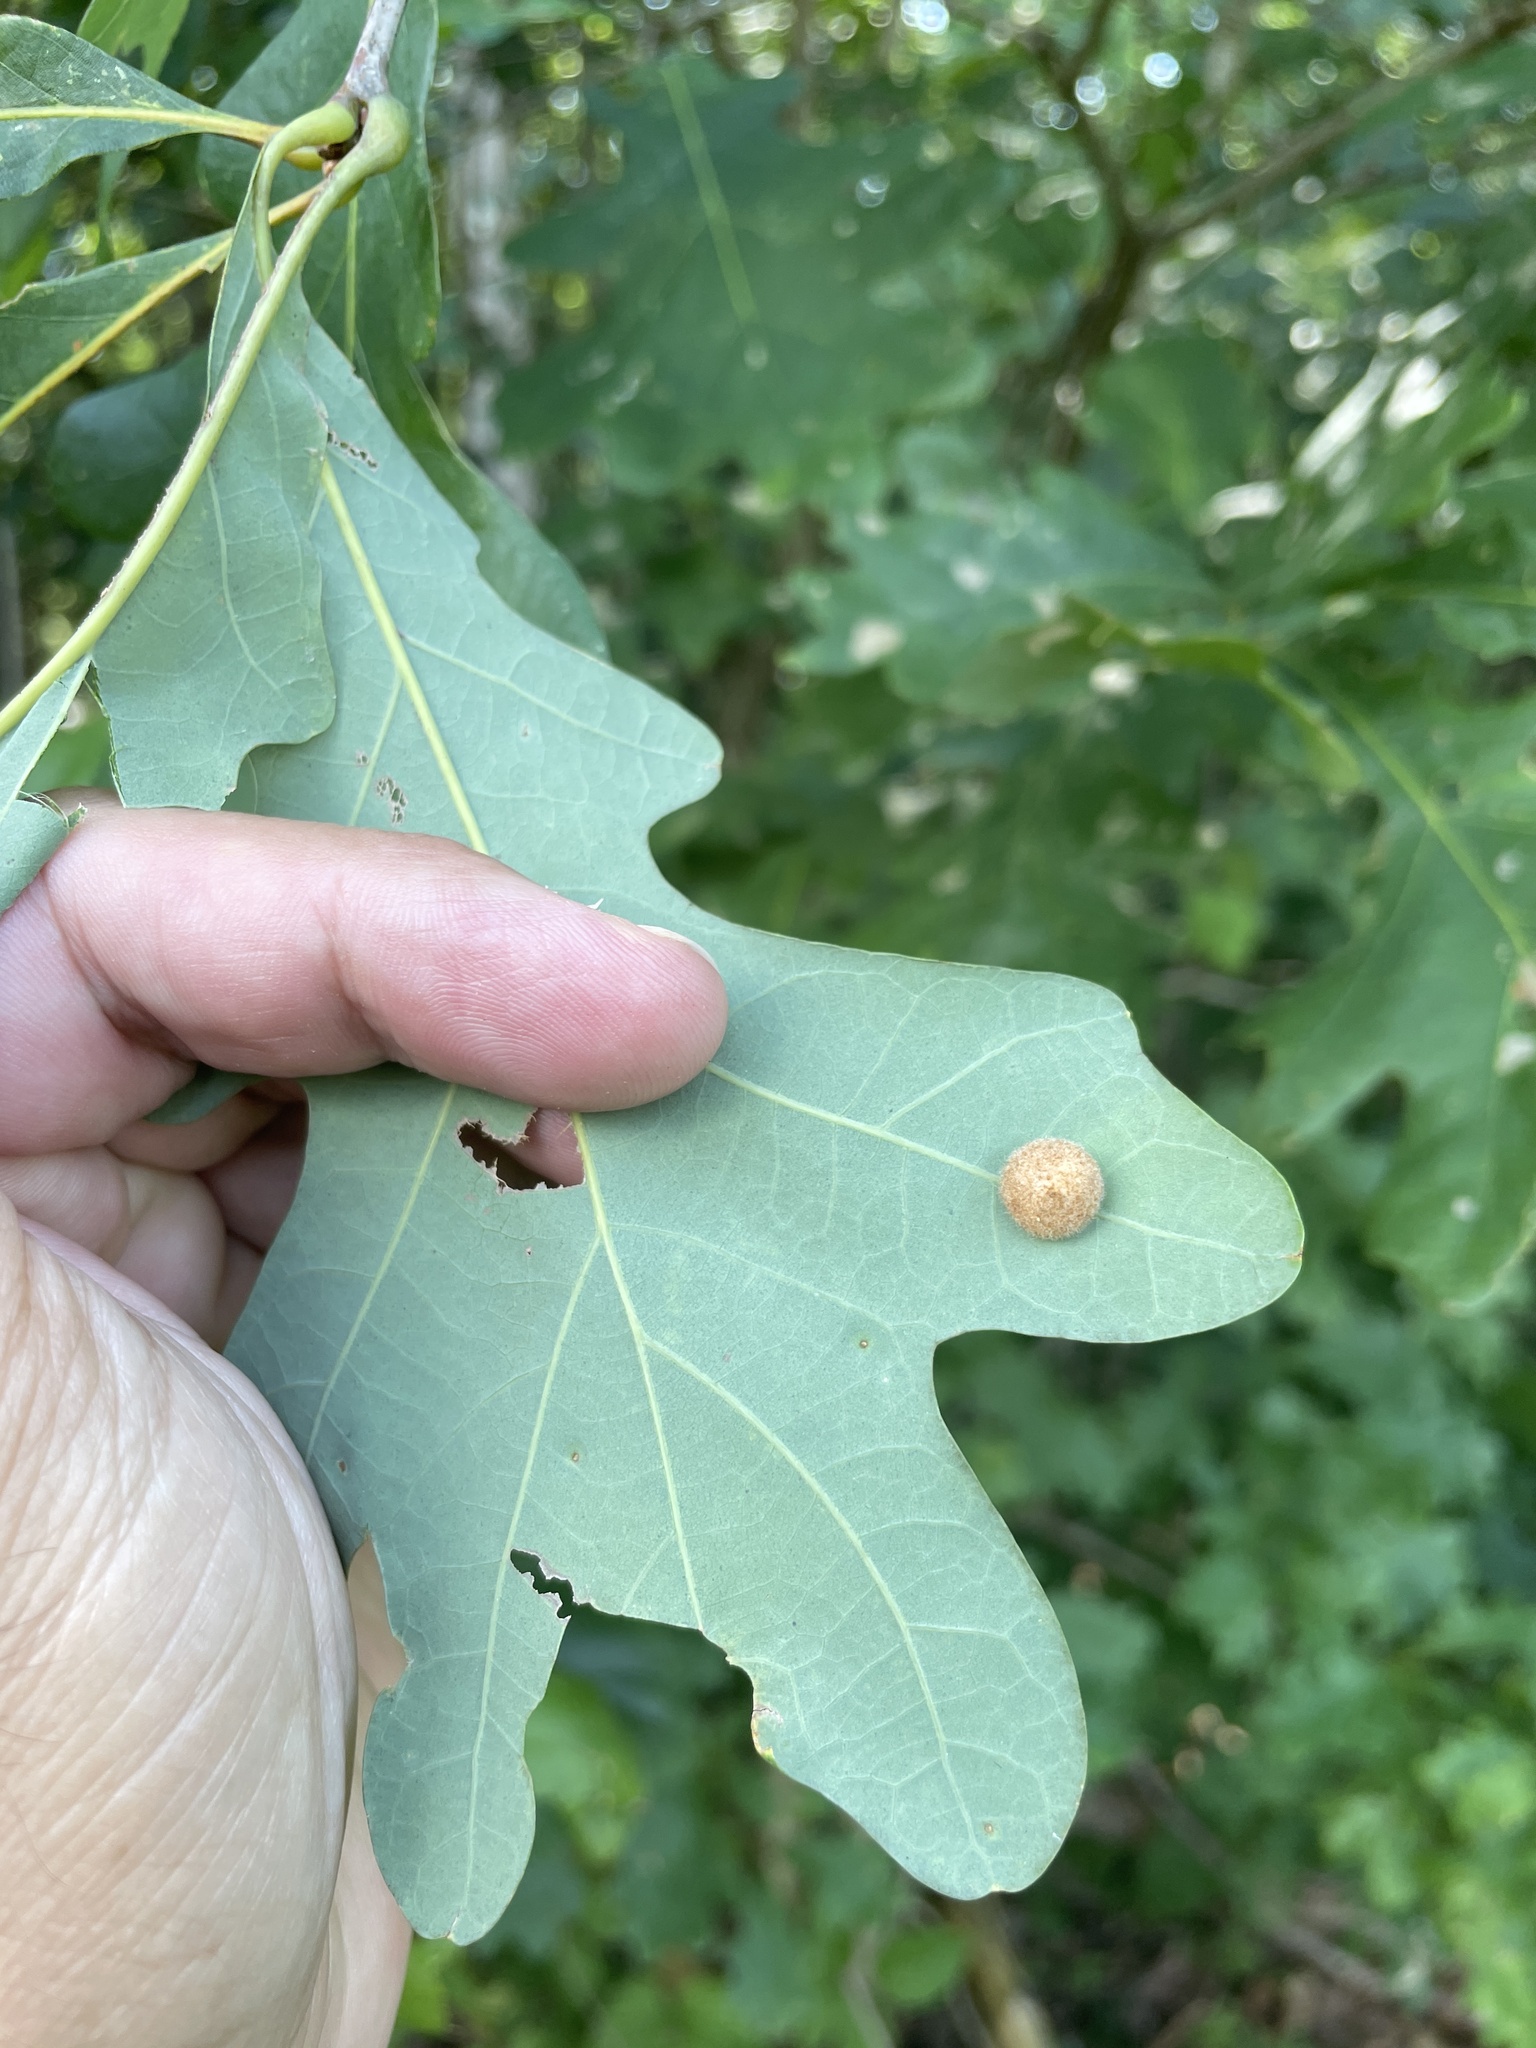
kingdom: Animalia
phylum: Arthropoda
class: Insecta
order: Hymenoptera
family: Cynipidae
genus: Philonix
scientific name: Philonix fulvicollis
